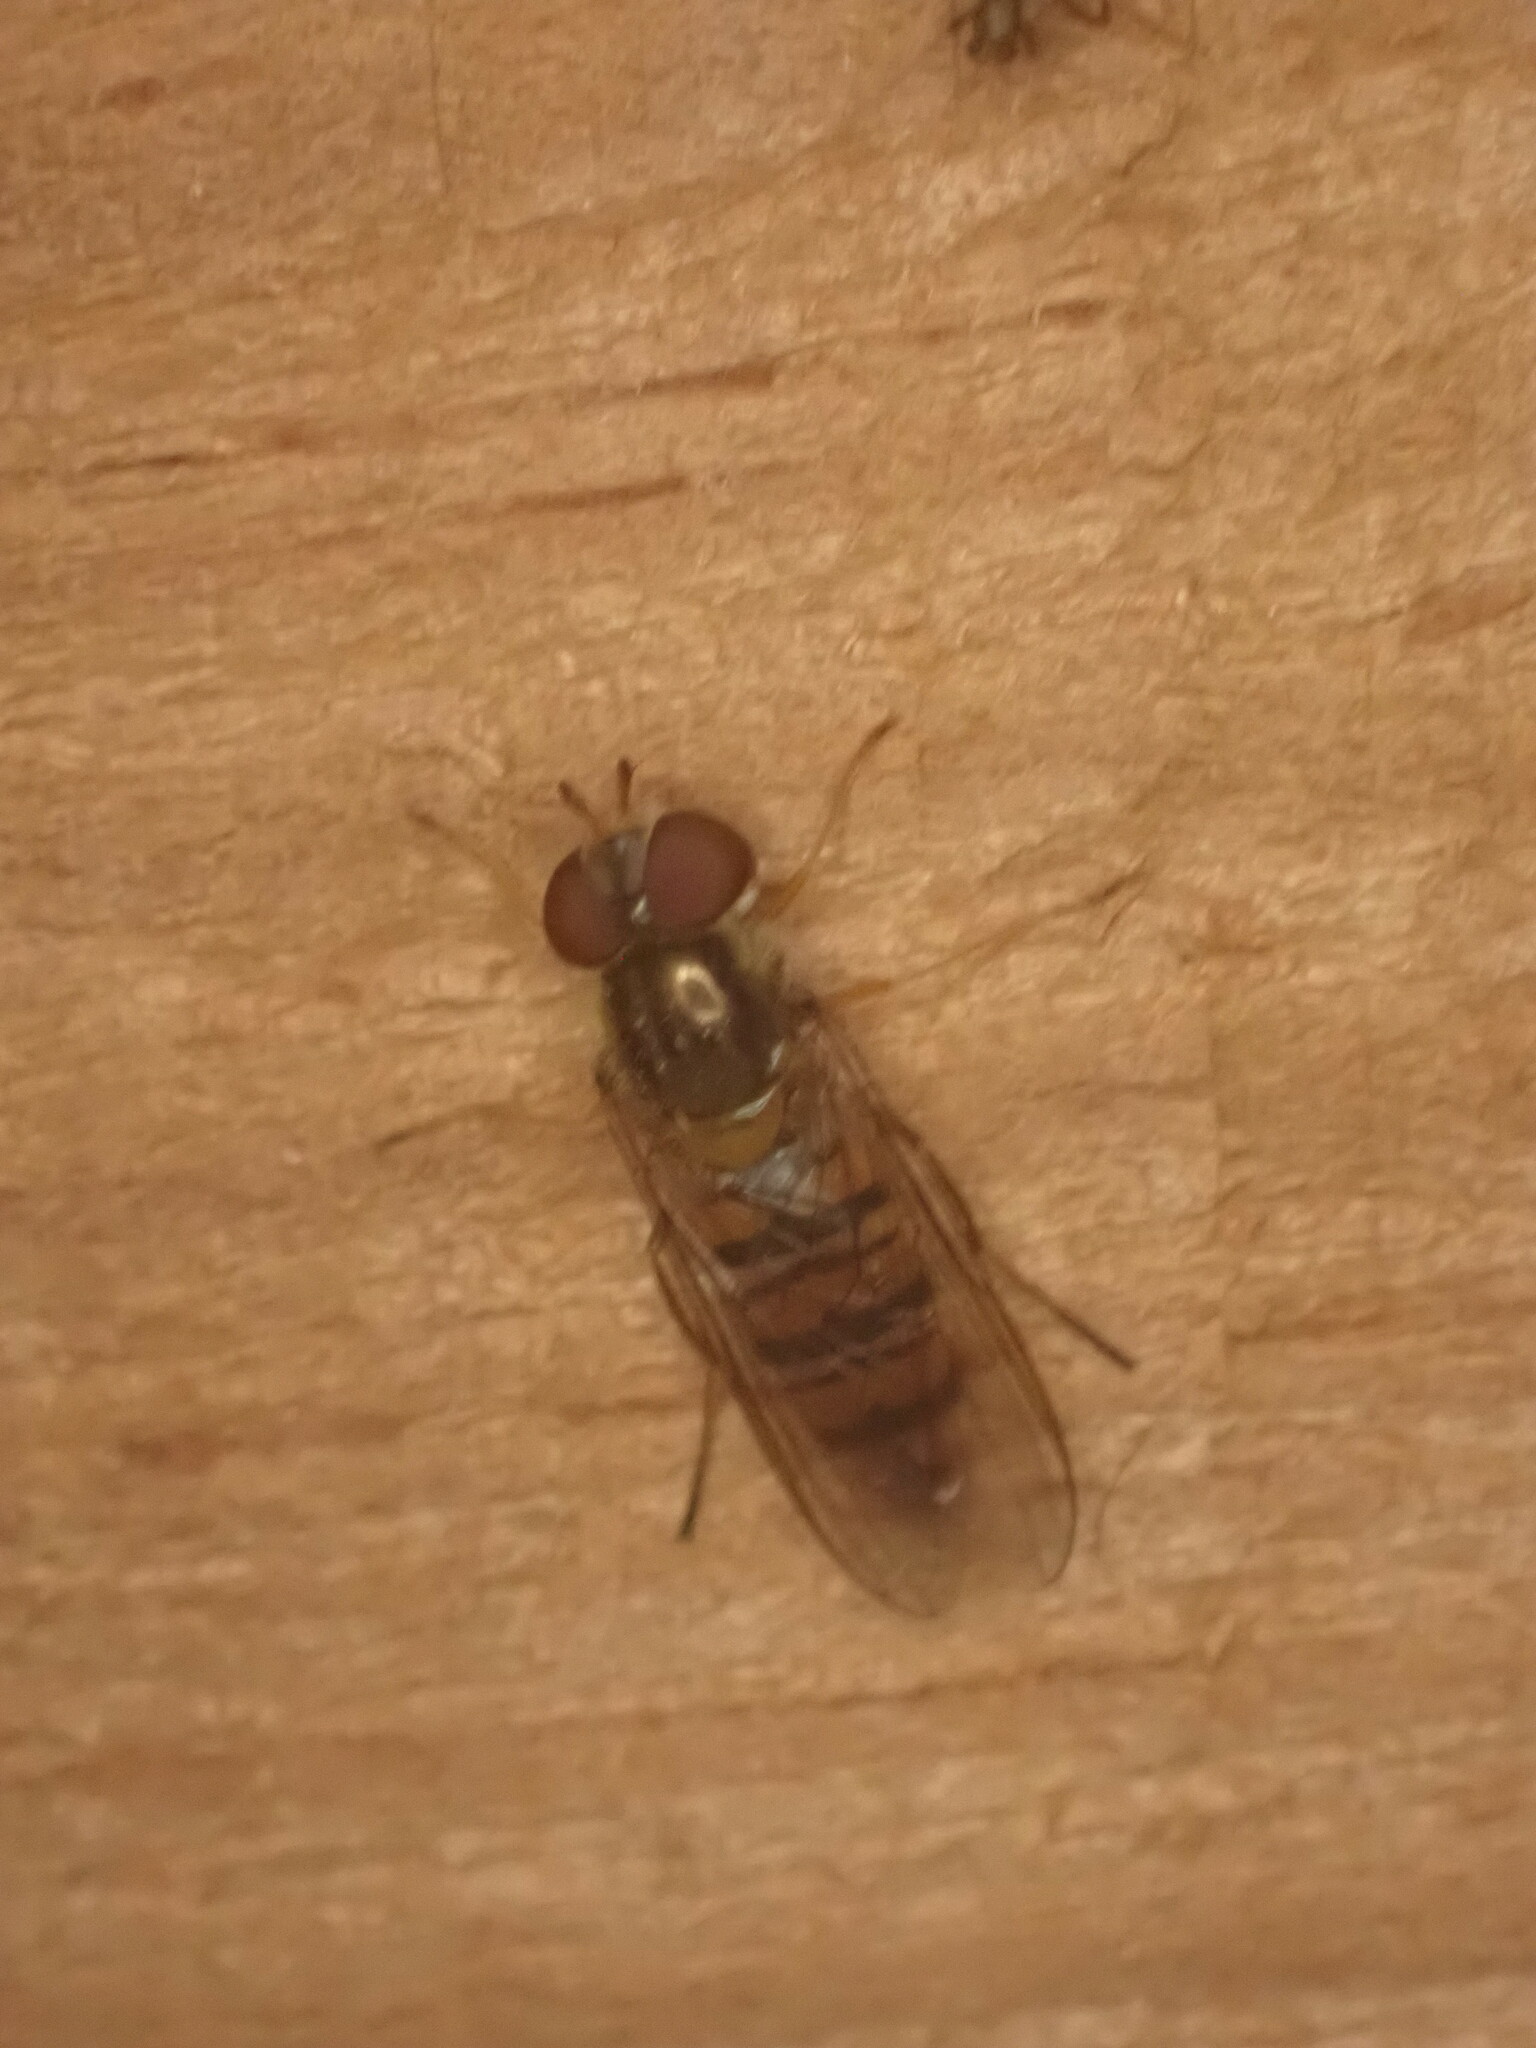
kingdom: Animalia
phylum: Arthropoda
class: Insecta
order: Diptera
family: Syrphidae
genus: Episyrphus
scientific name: Episyrphus balteatus
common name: Marmalade hoverfly
